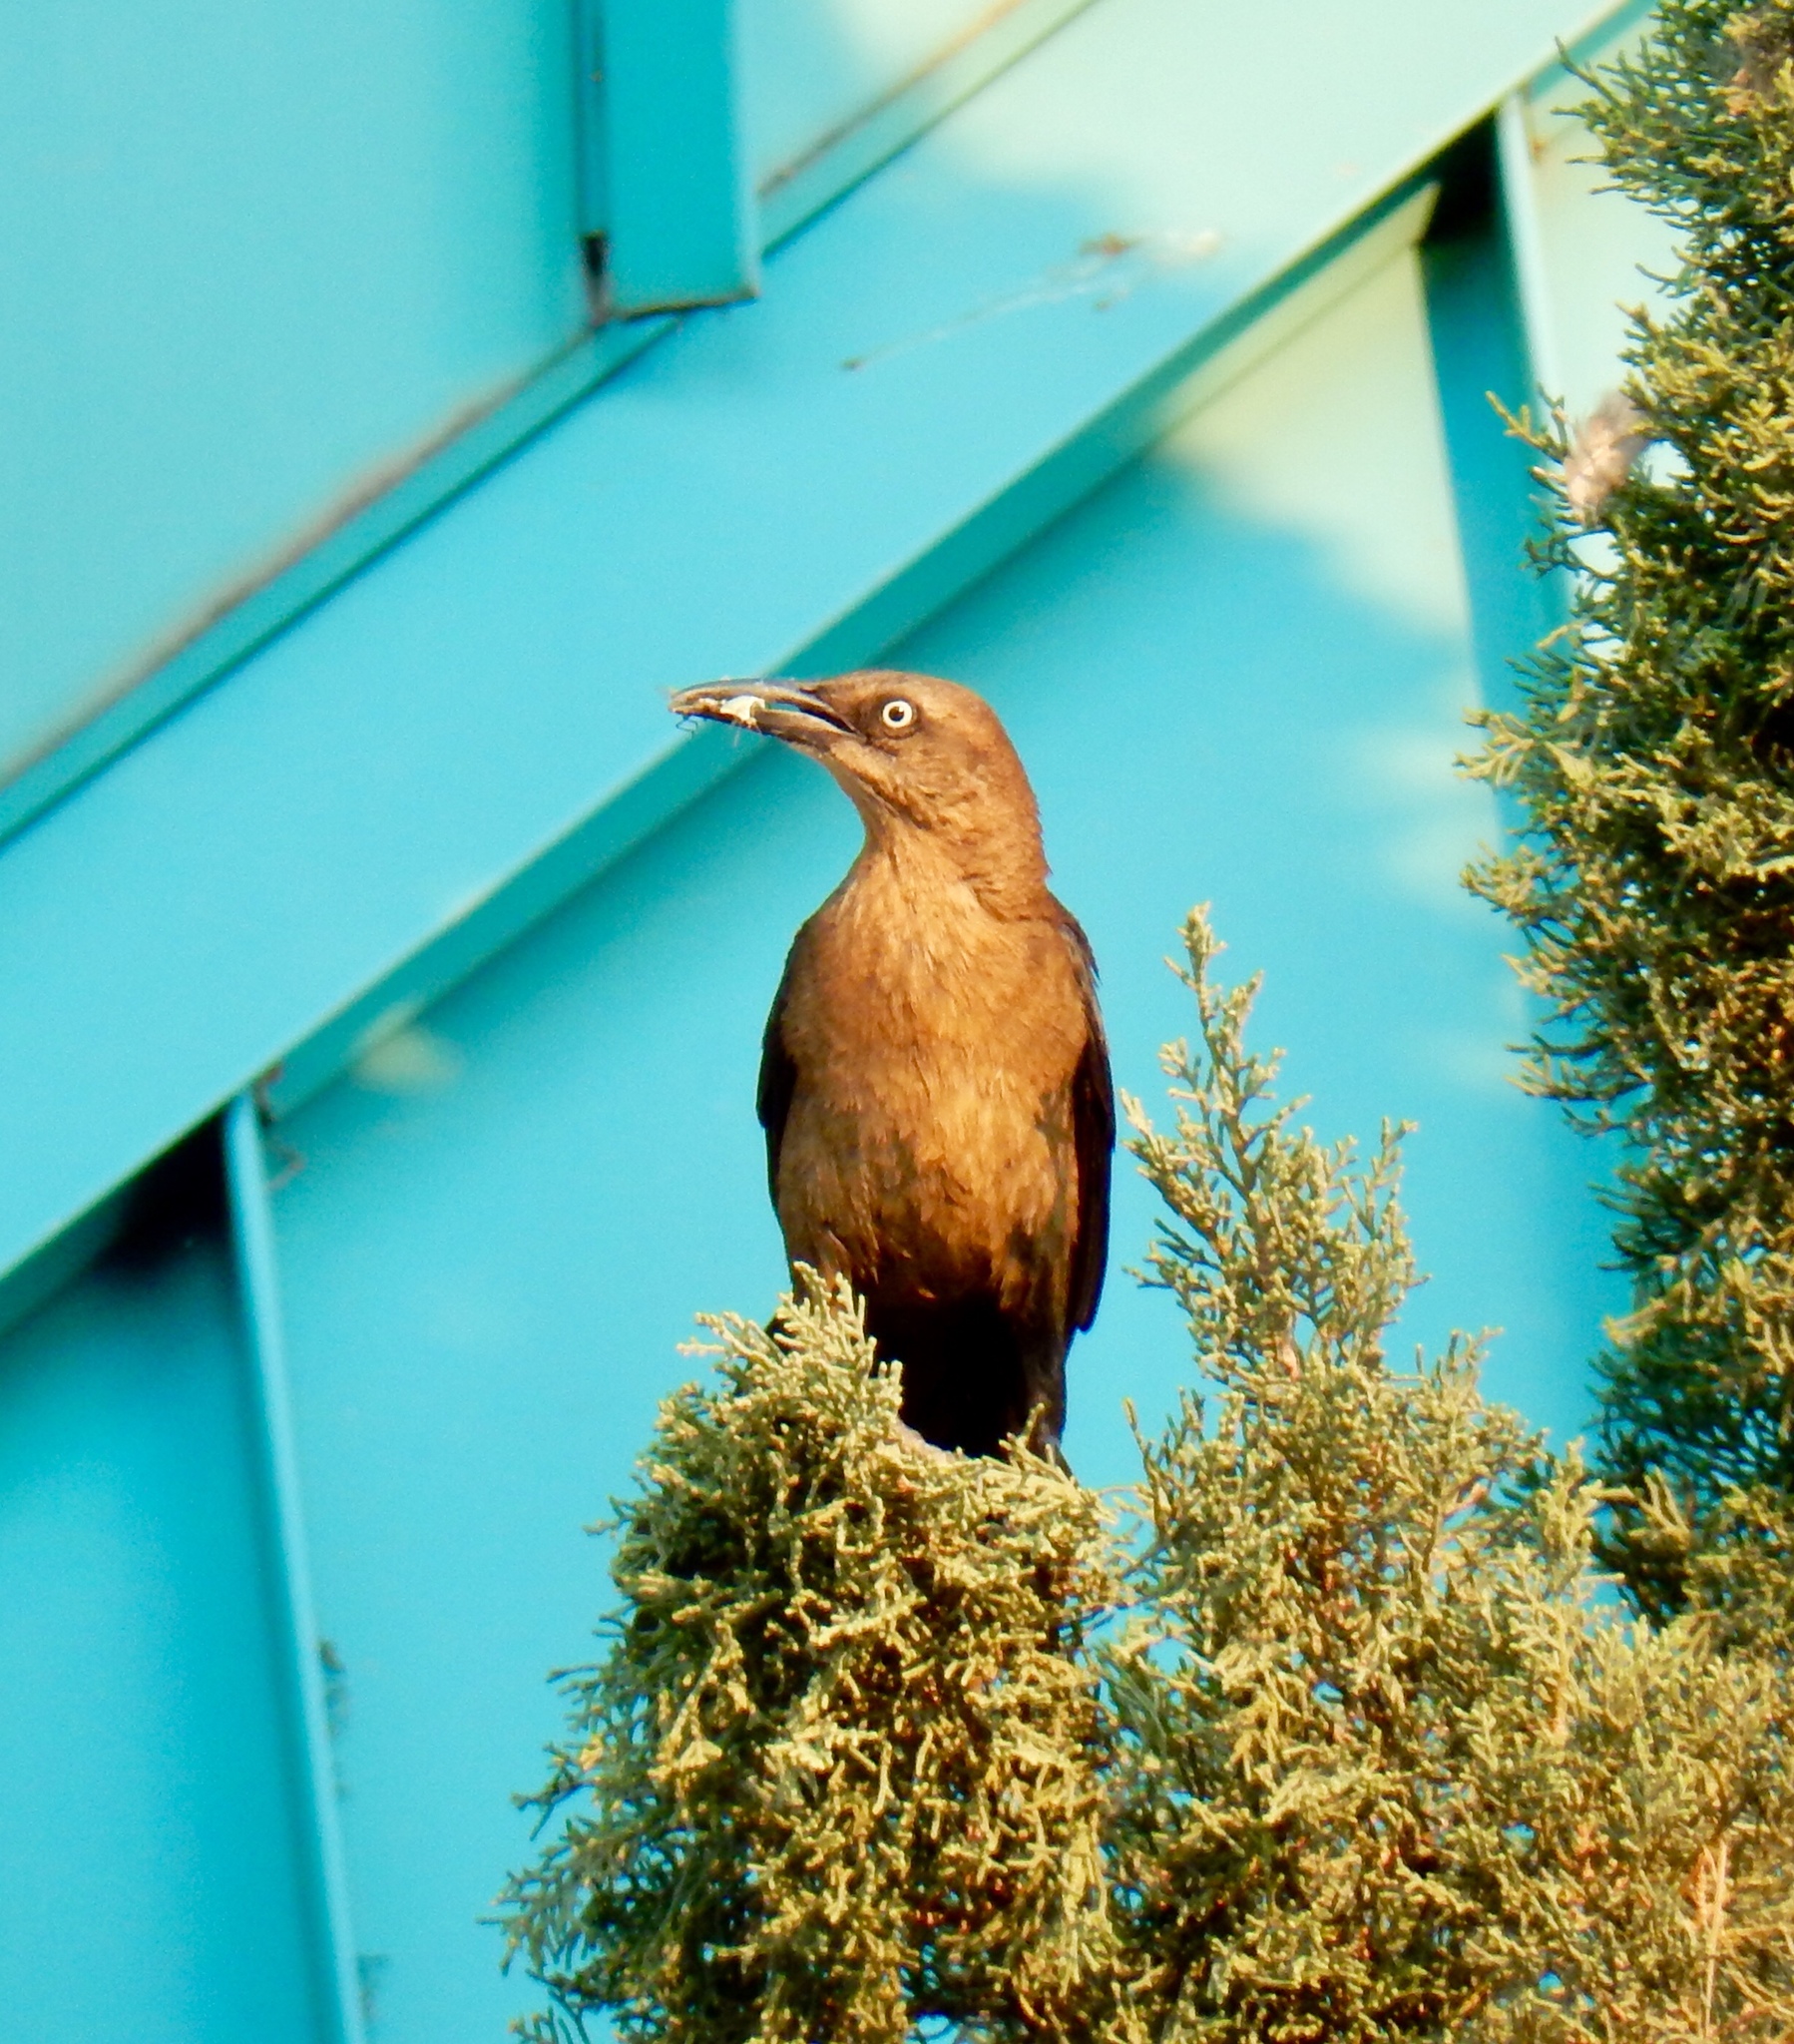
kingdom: Animalia
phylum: Chordata
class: Aves
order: Passeriformes
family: Icteridae
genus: Quiscalus
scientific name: Quiscalus mexicanus
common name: Great-tailed grackle
